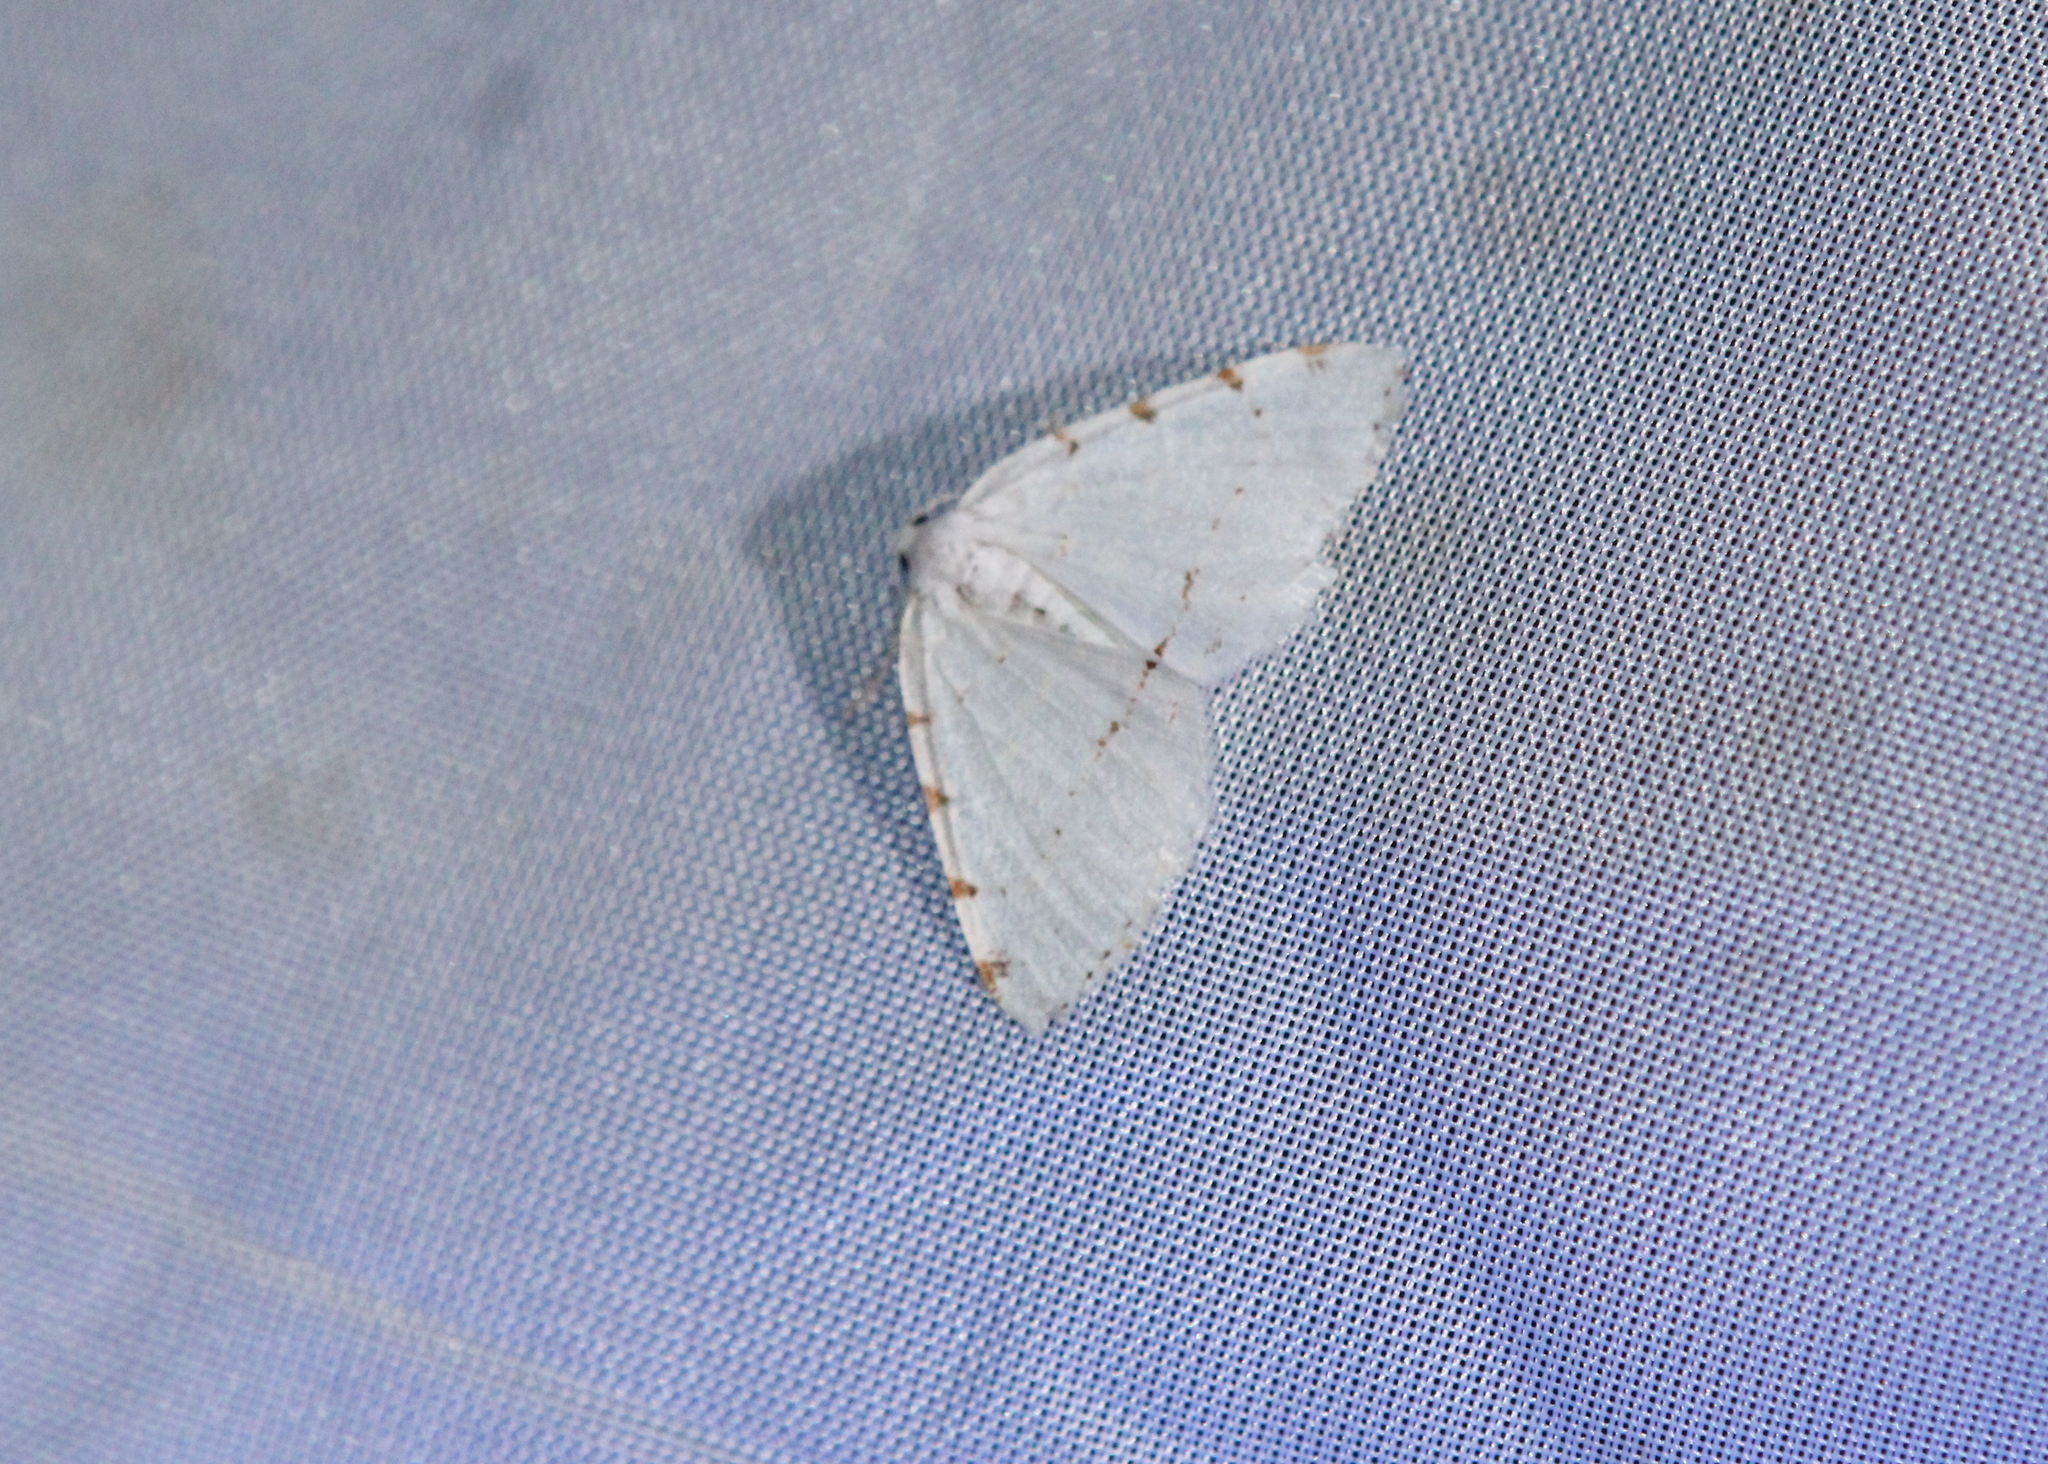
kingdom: Animalia
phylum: Arthropoda
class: Insecta
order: Lepidoptera
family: Geometridae
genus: Macaria
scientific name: Macaria pustularia
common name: Lesser maple spanworm moth
